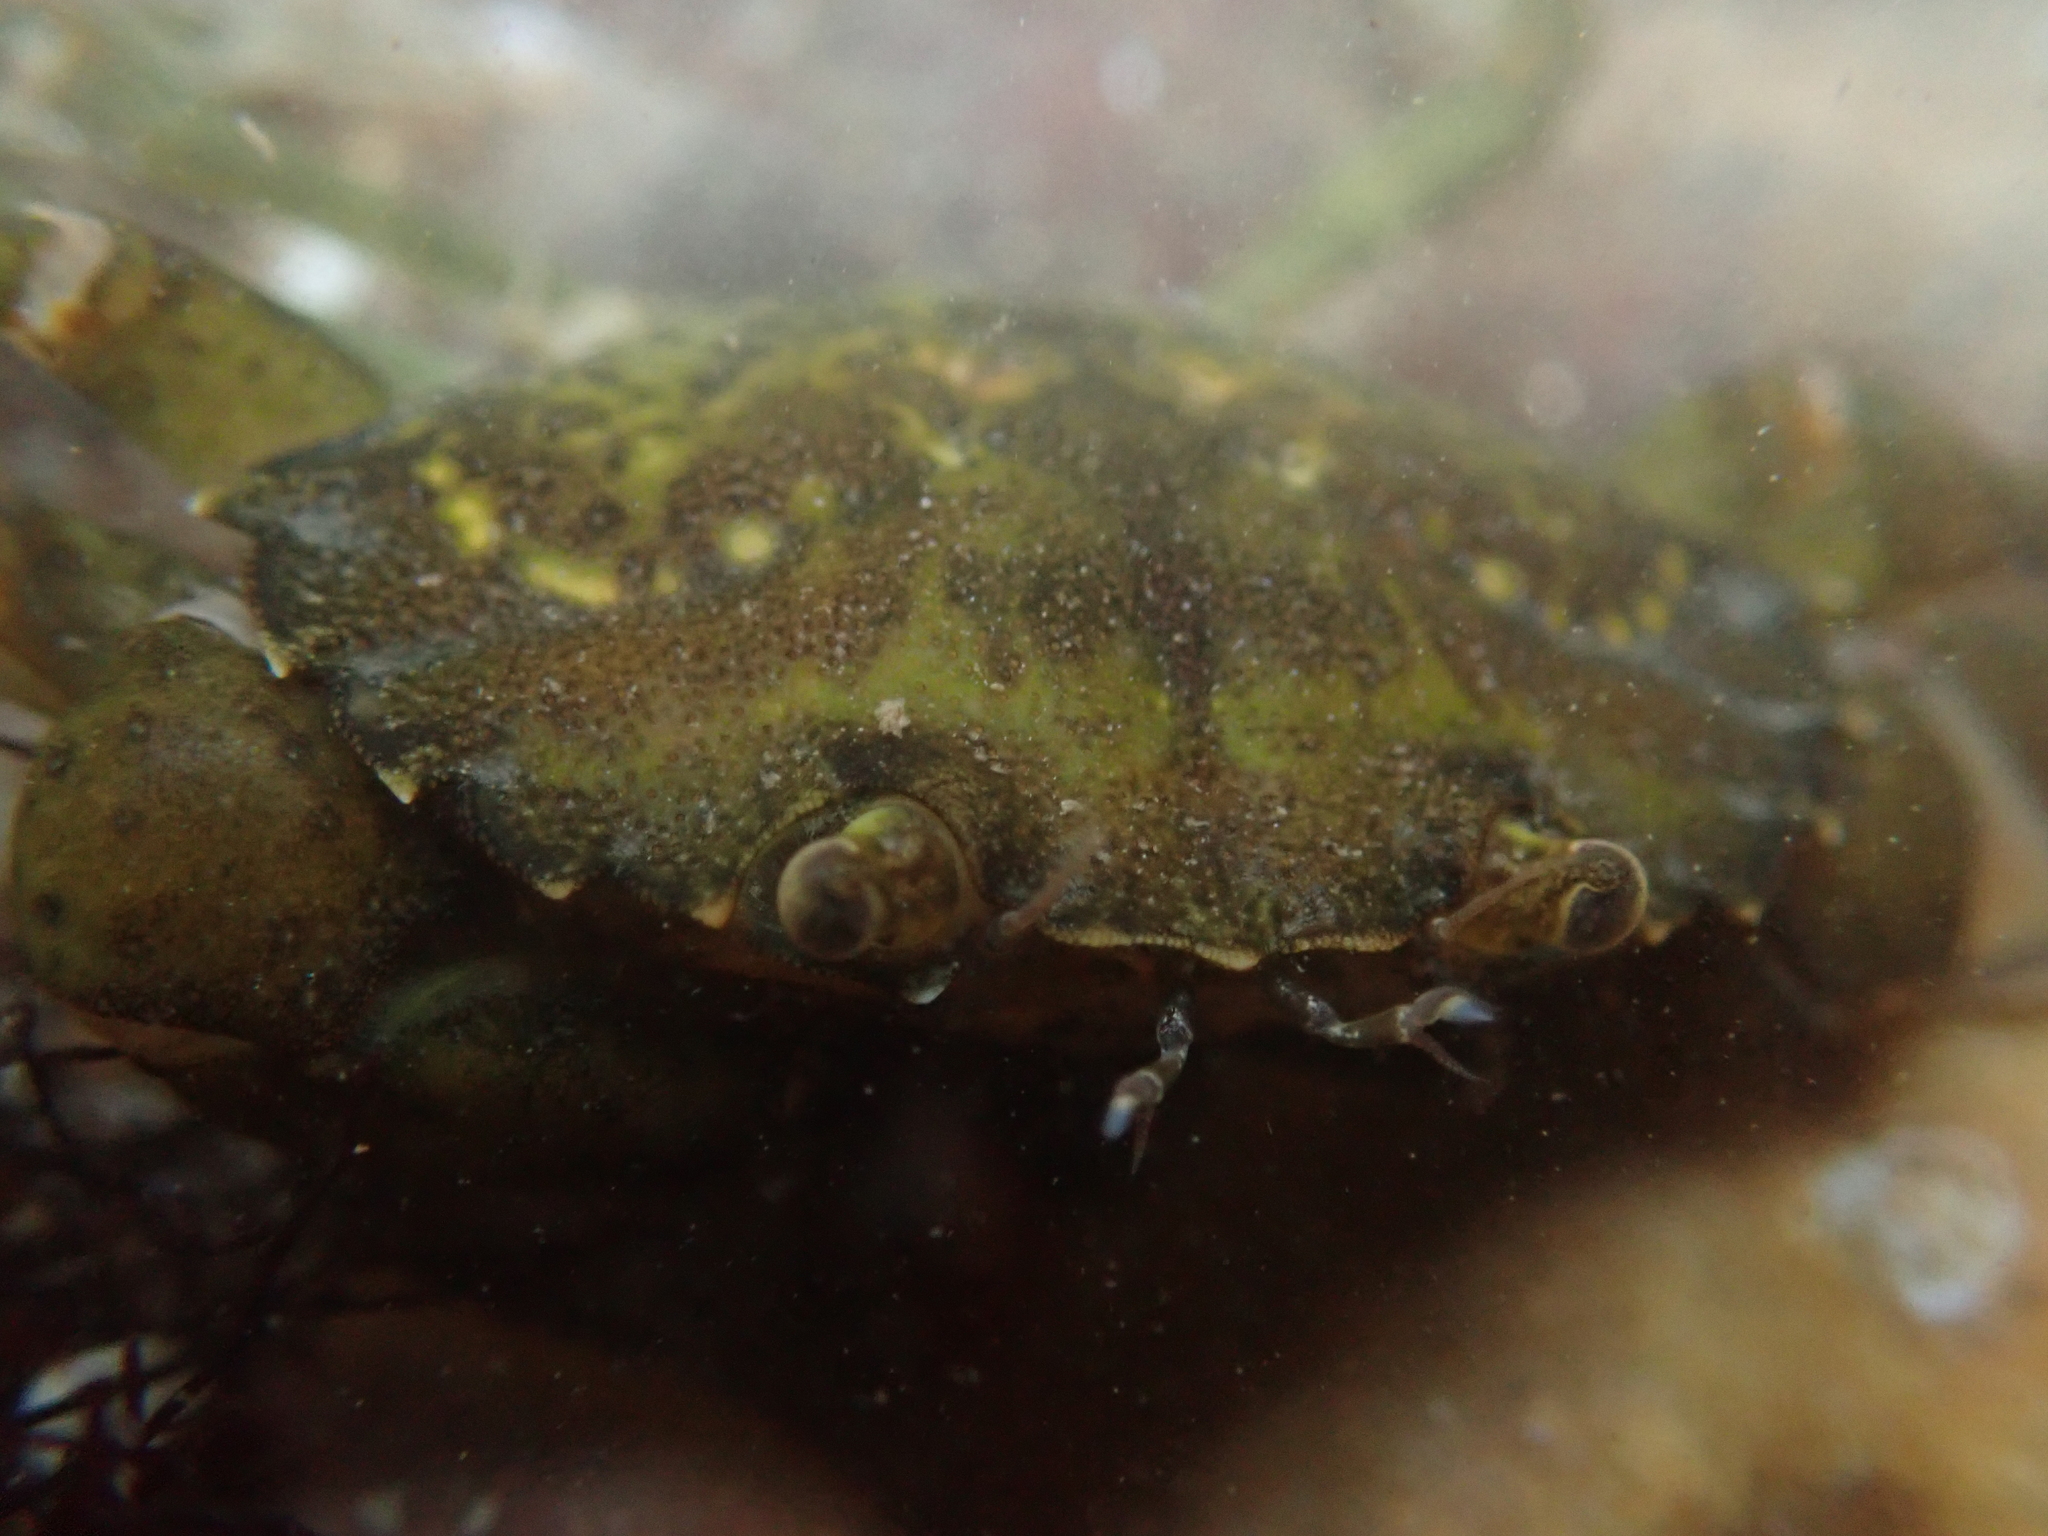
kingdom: Animalia
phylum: Arthropoda
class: Malacostraca
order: Decapoda
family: Carcinidae
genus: Carcinus
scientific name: Carcinus maenas
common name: European green crab
